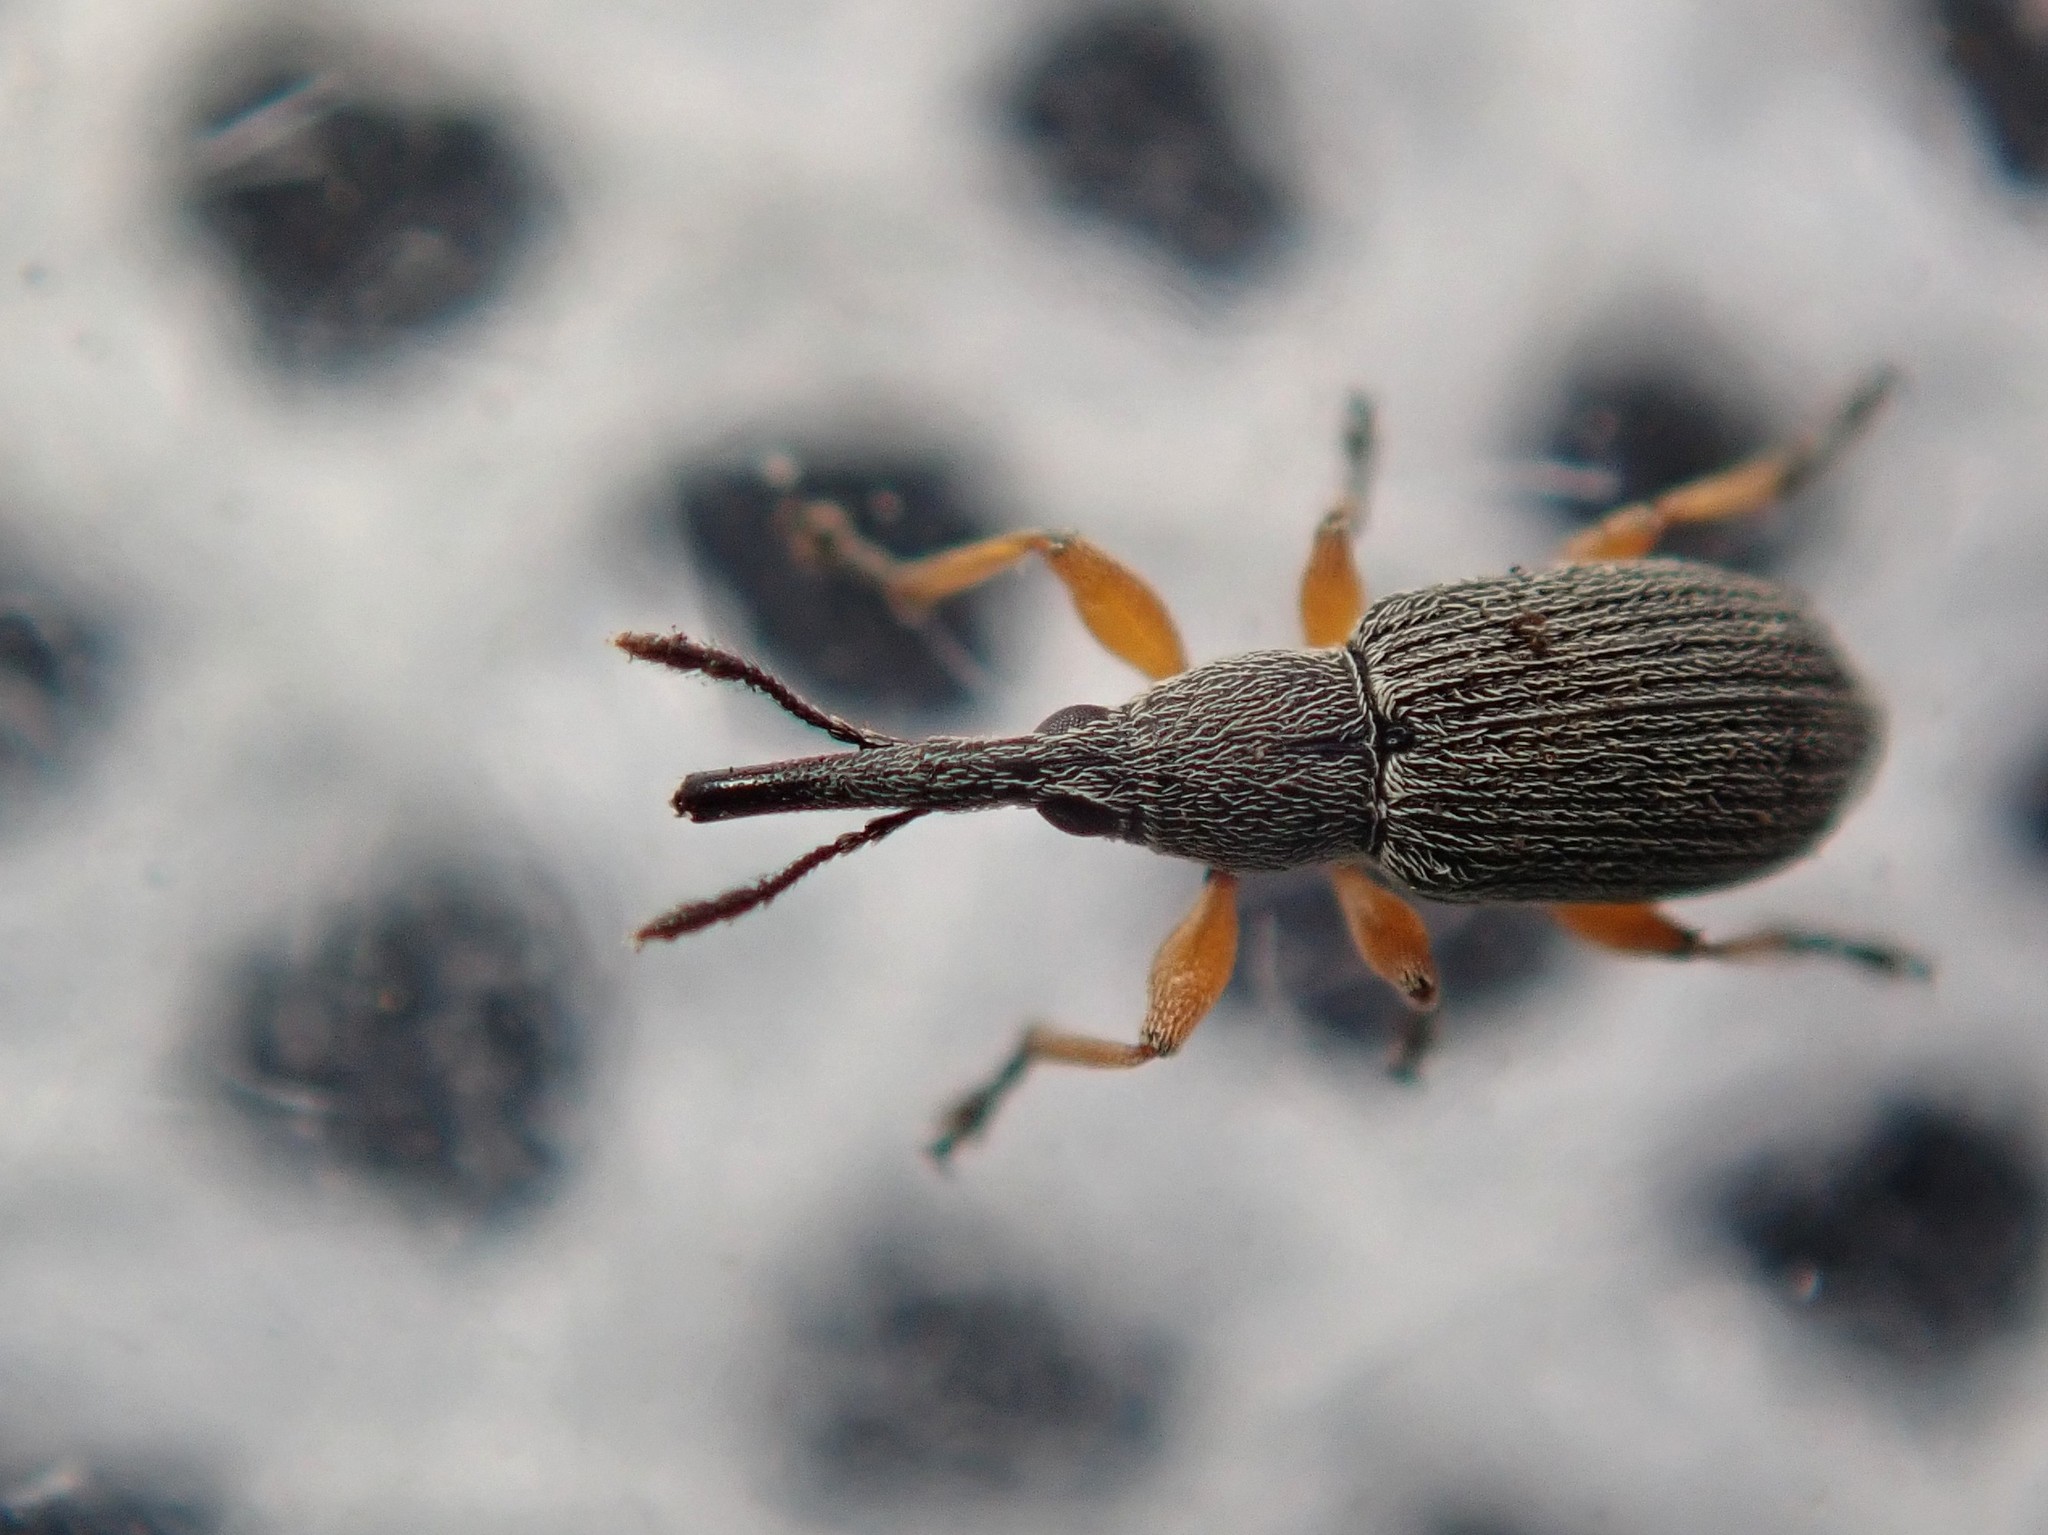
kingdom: Animalia
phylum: Arthropoda
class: Insecta
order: Coleoptera
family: Brentidae
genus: Rhopalapion
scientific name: Rhopalapion longirostre
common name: Hollyhock weevil
